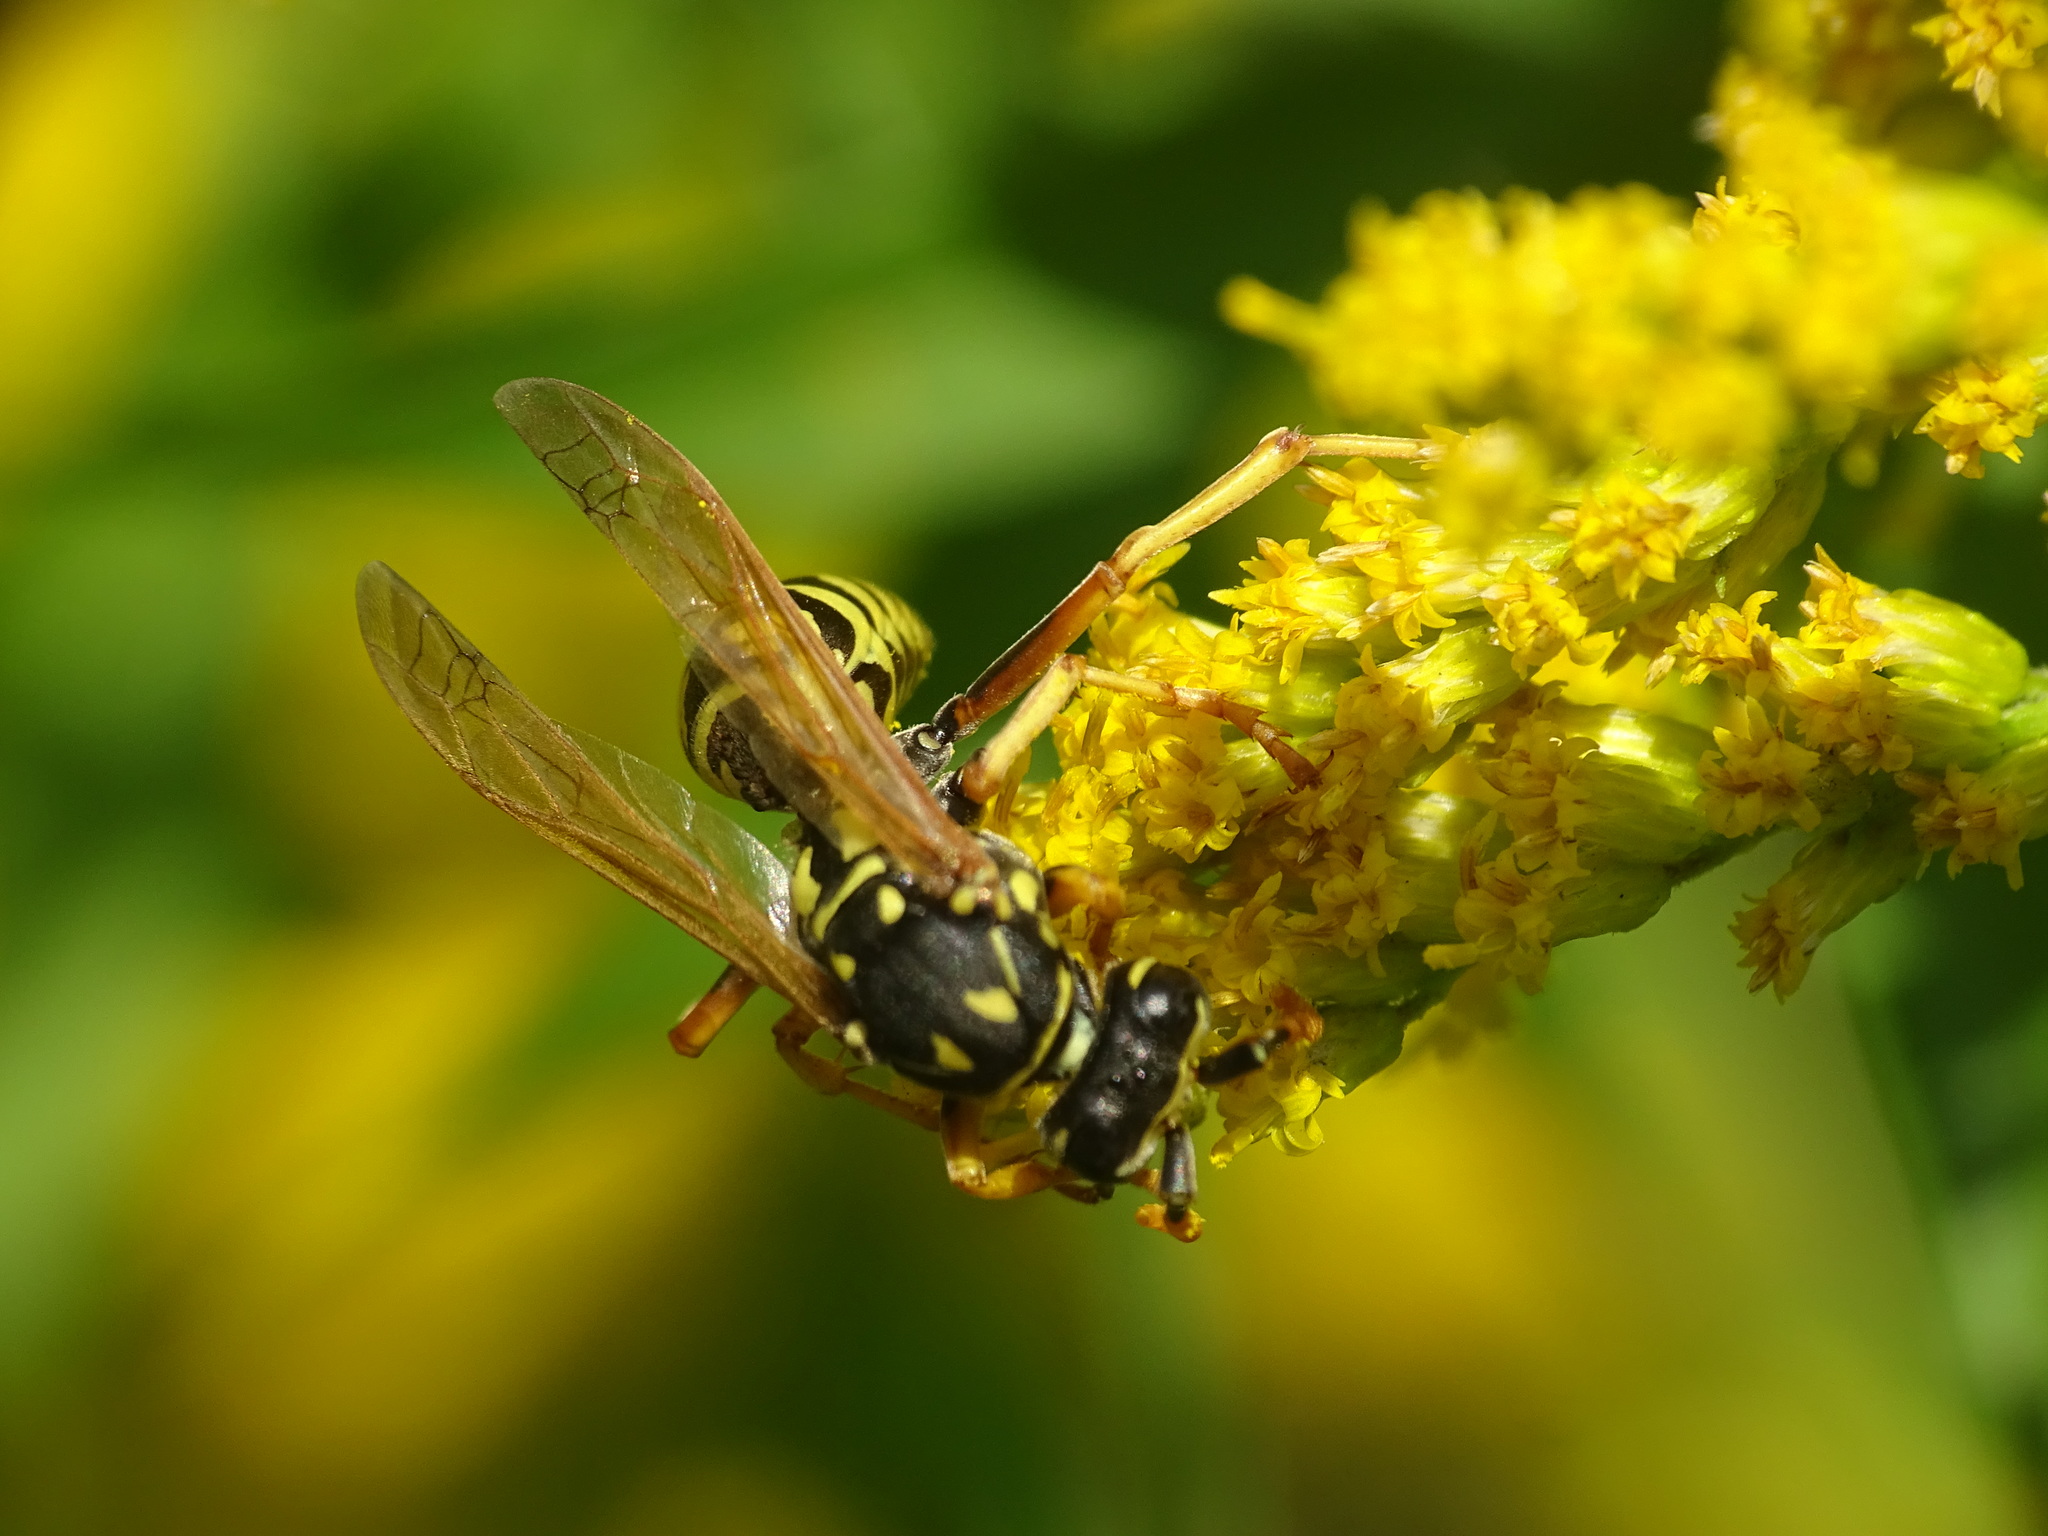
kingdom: Animalia
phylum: Arthropoda
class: Insecta
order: Hymenoptera
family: Eumenidae
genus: Polistes
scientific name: Polistes dominula
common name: Paper wasp
